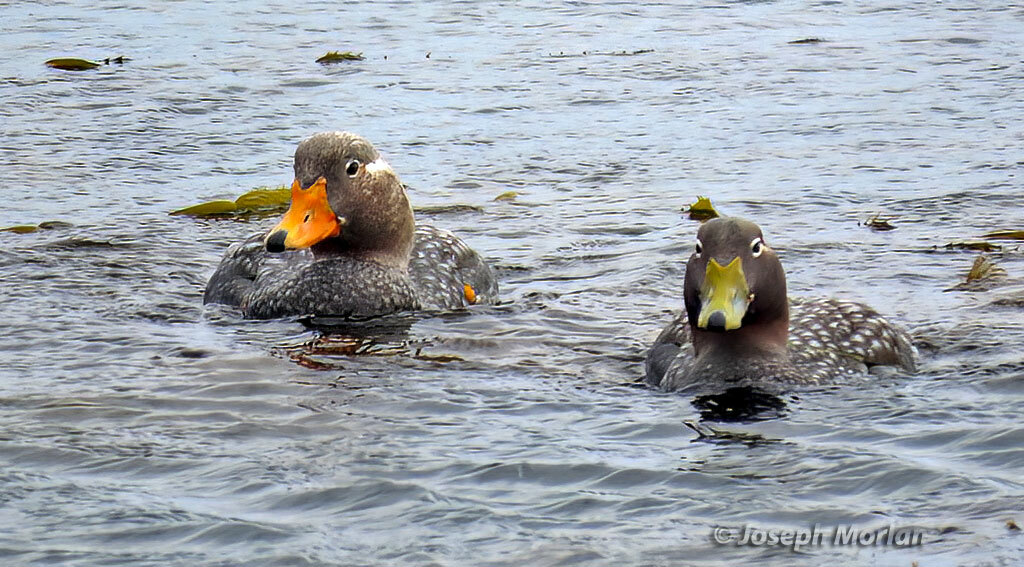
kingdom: Animalia
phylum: Chordata
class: Aves
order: Anseriformes
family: Anatidae
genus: Tachyeres
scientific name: Tachyeres brachypterus
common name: Falkland steamer duck
